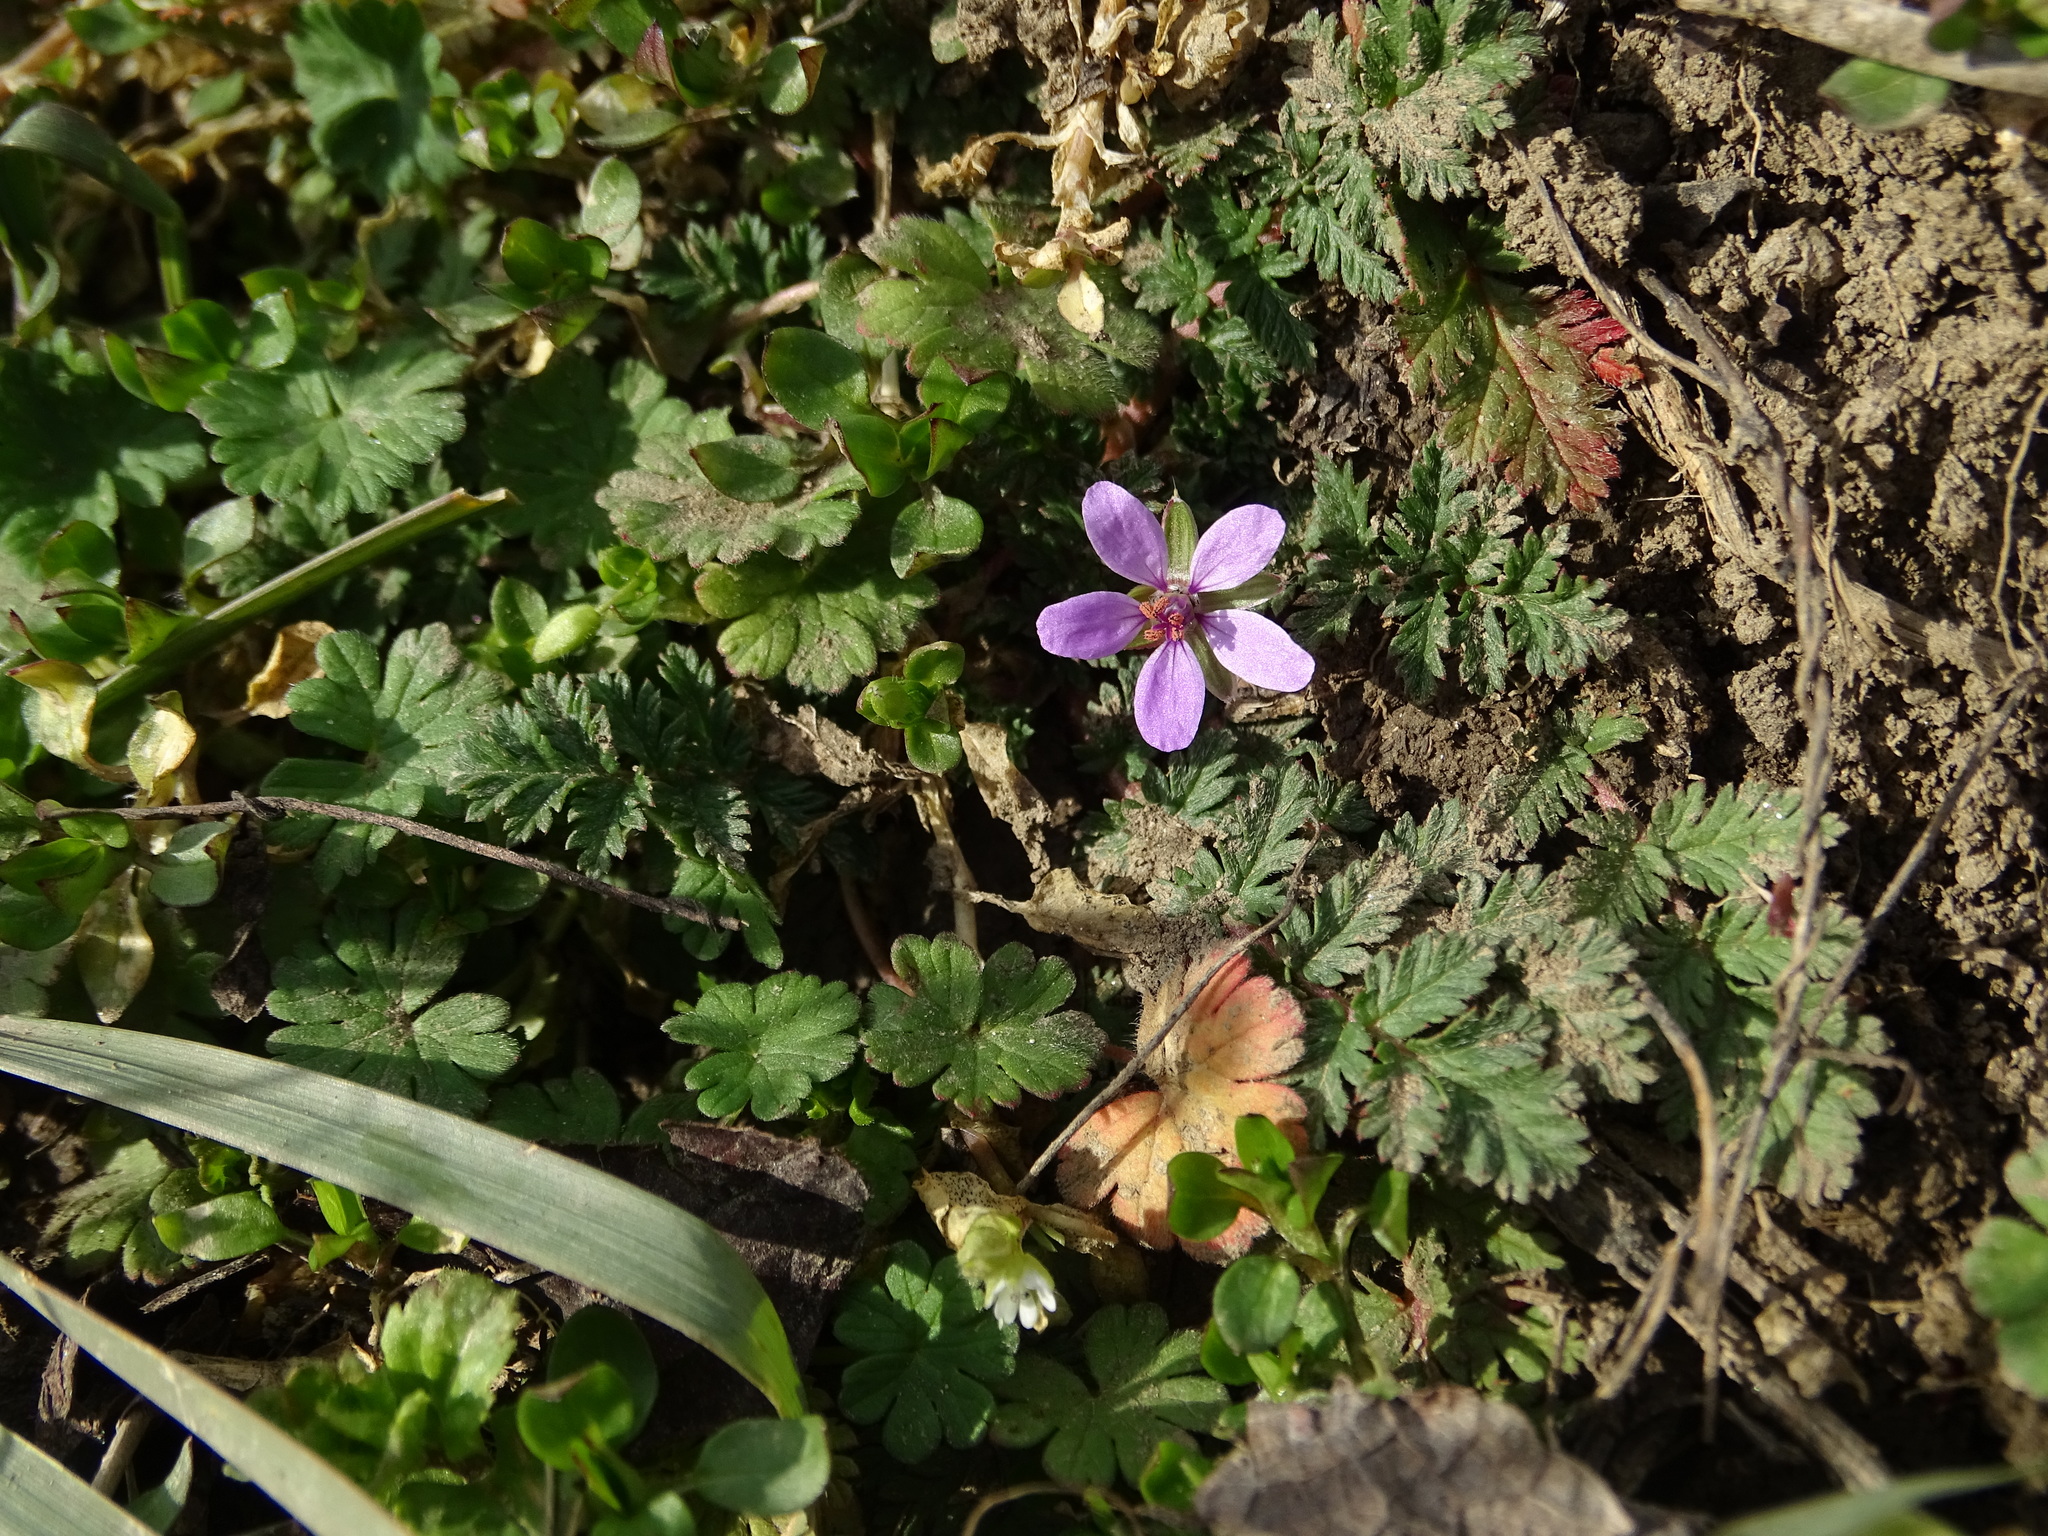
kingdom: Plantae
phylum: Tracheophyta
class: Magnoliopsida
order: Geraniales
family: Geraniaceae
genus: Erodium
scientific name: Erodium cicutarium
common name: Common stork's-bill
